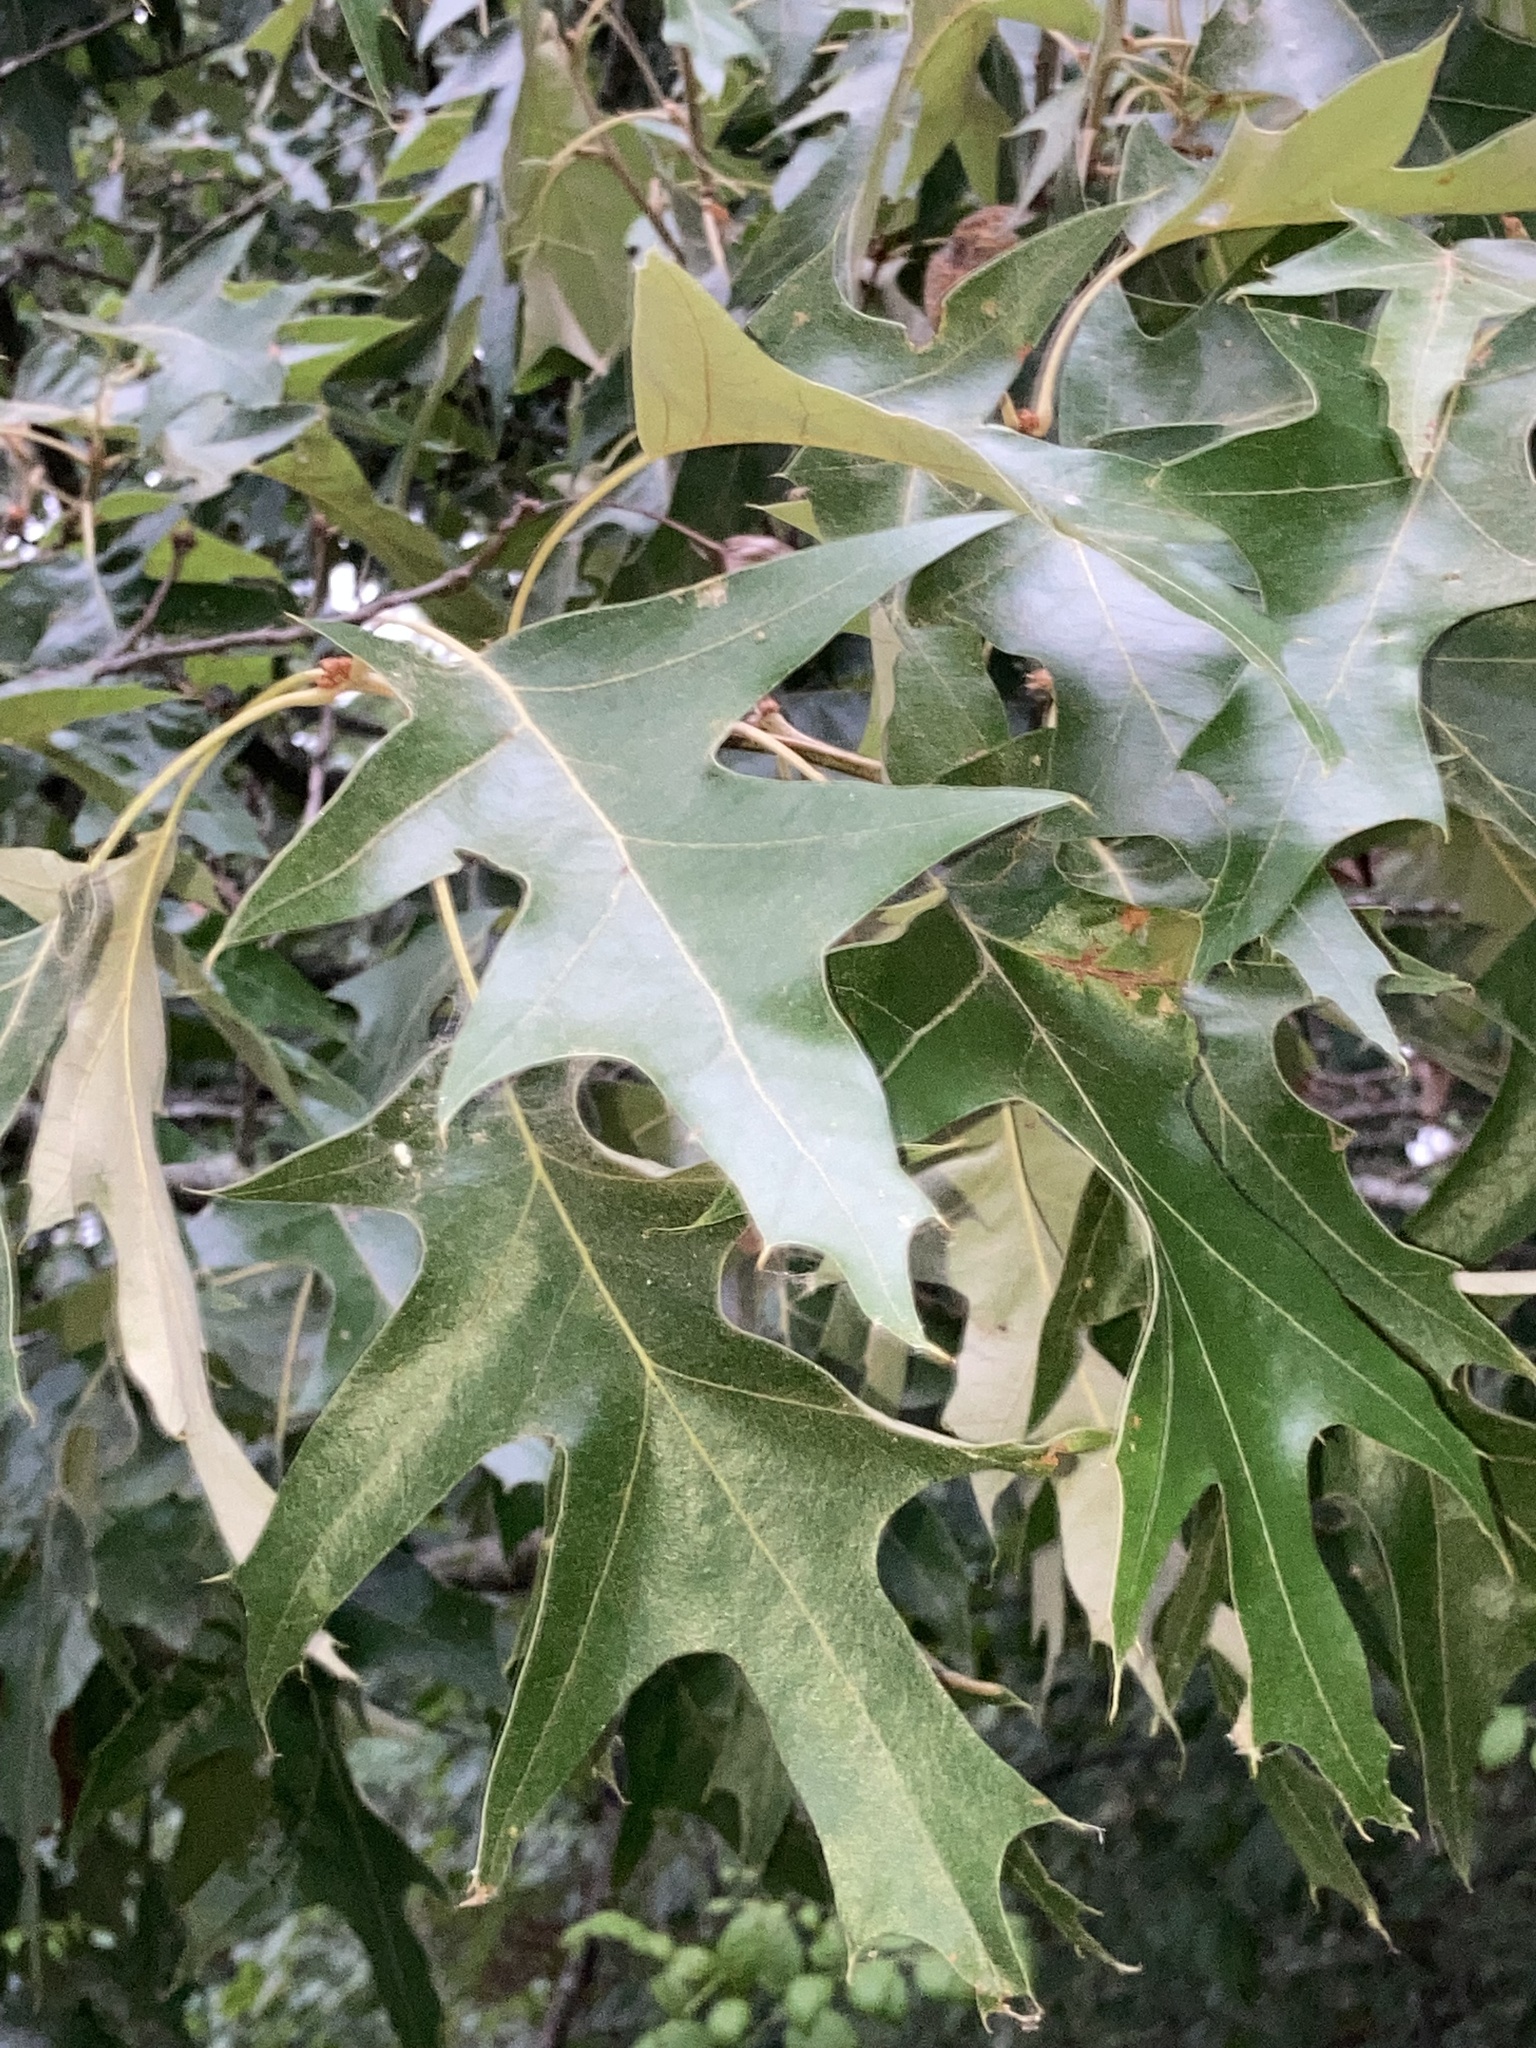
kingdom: Plantae
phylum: Tracheophyta
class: Magnoliopsida
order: Fagales
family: Fagaceae
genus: Quercus
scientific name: Quercus pagoda
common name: Cherrybark oak
